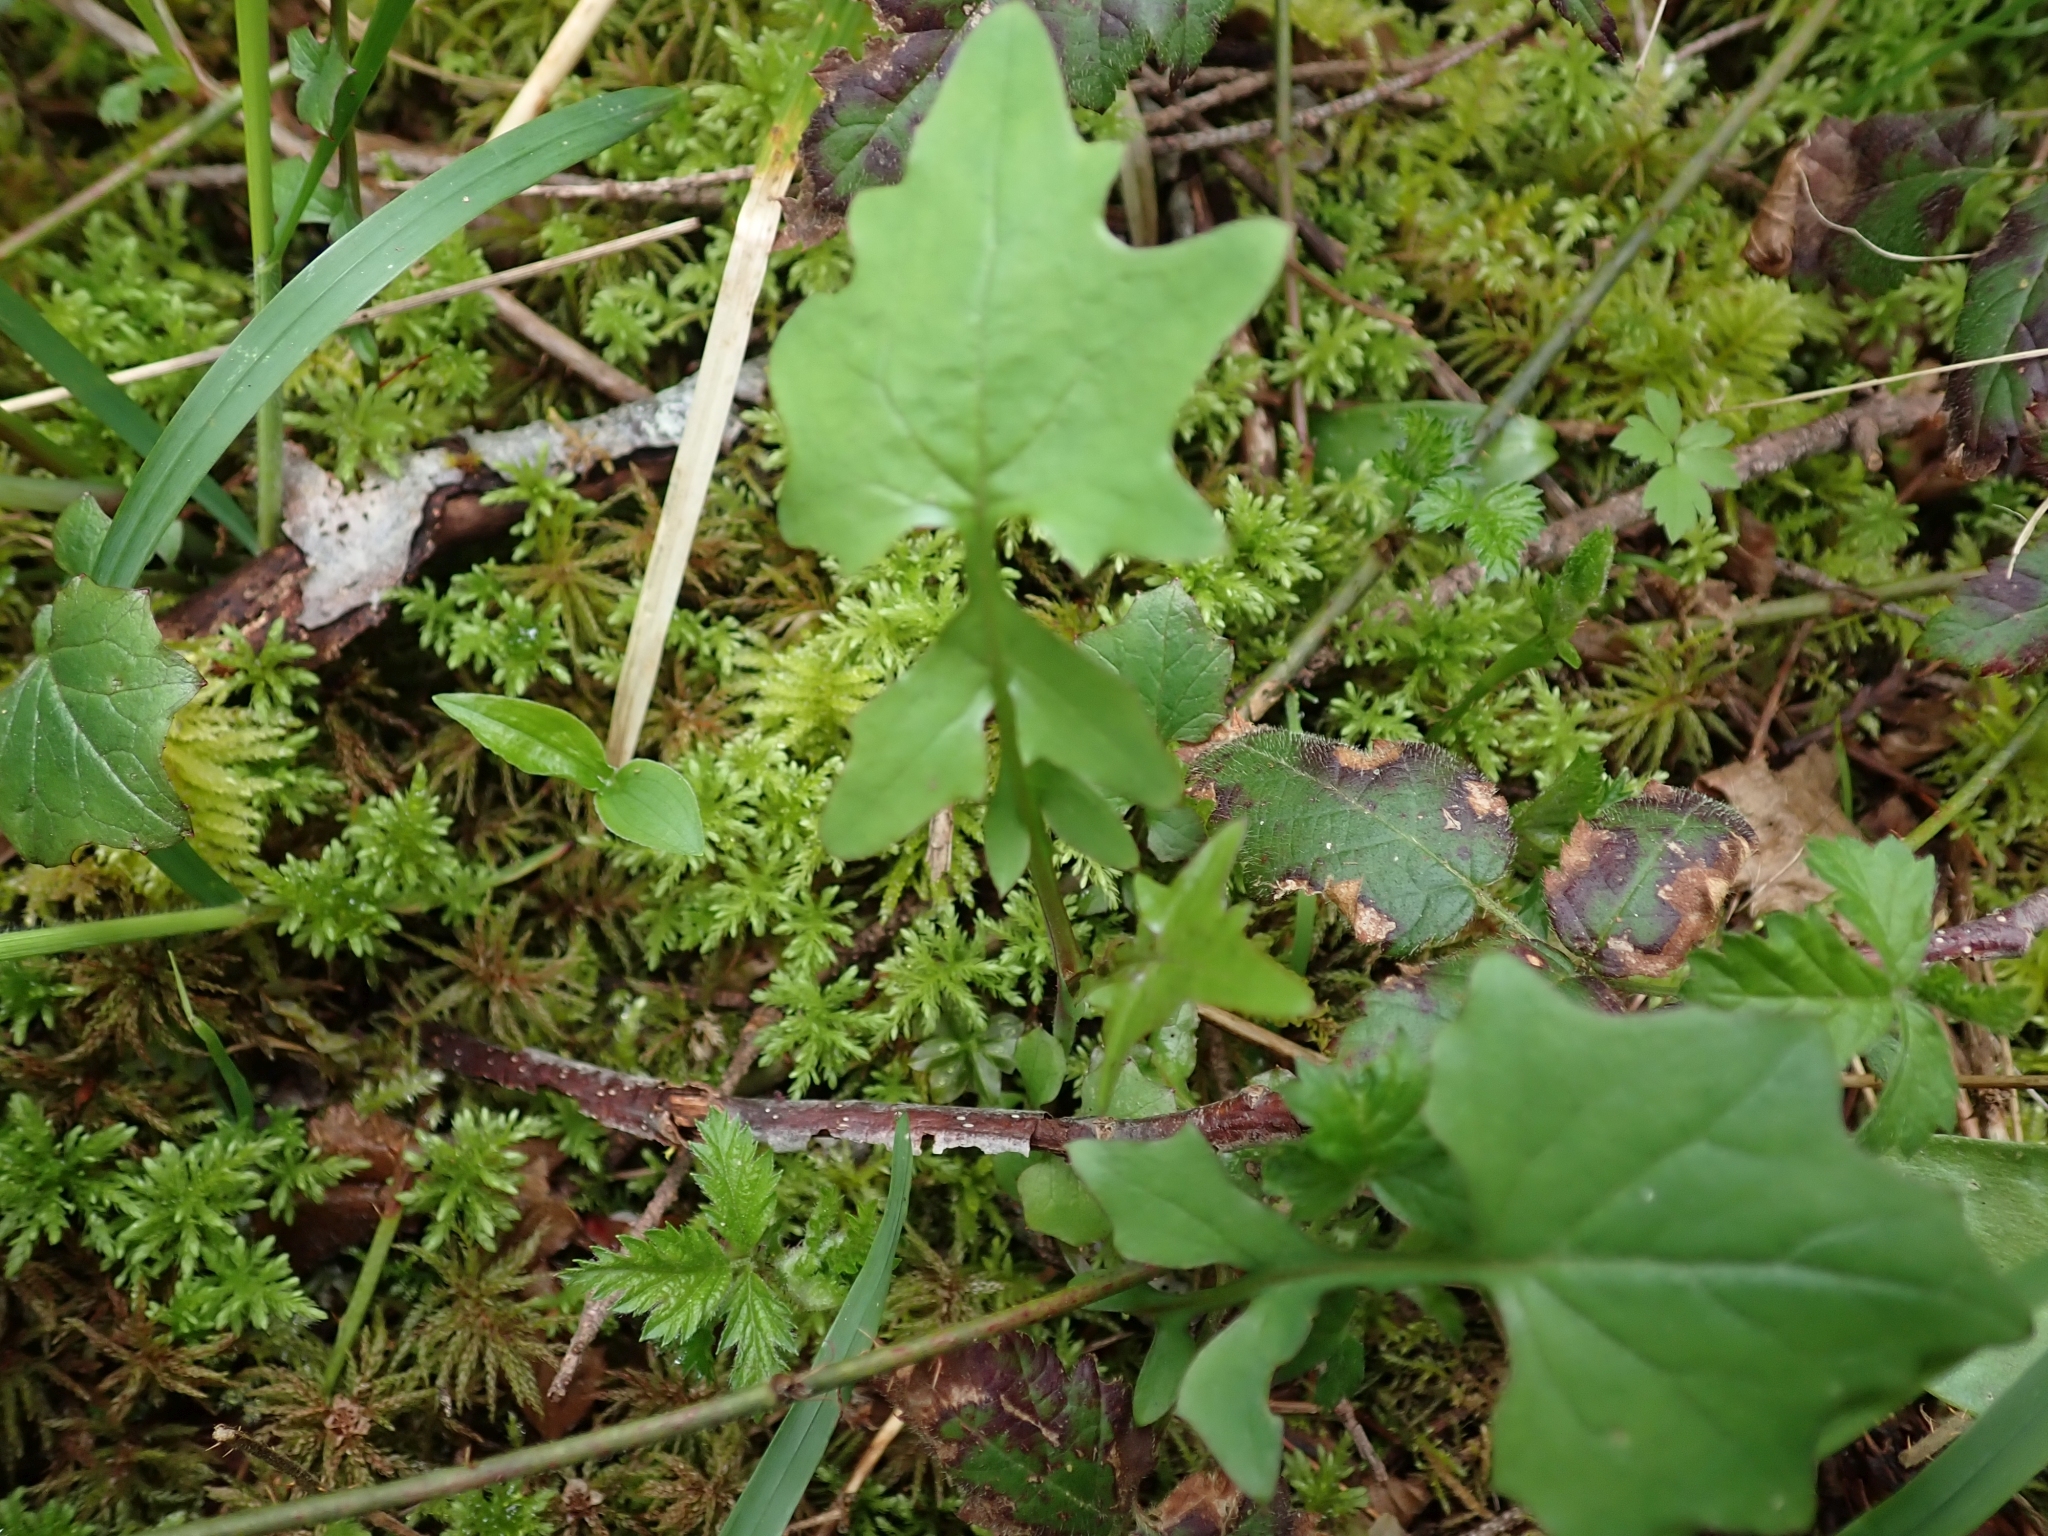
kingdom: Plantae
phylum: Tracheophyta
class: Magnoliopsida
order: Asterales
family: Asteraceae
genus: Mycelis
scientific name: Mycelis muralis
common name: Wall lettuce
